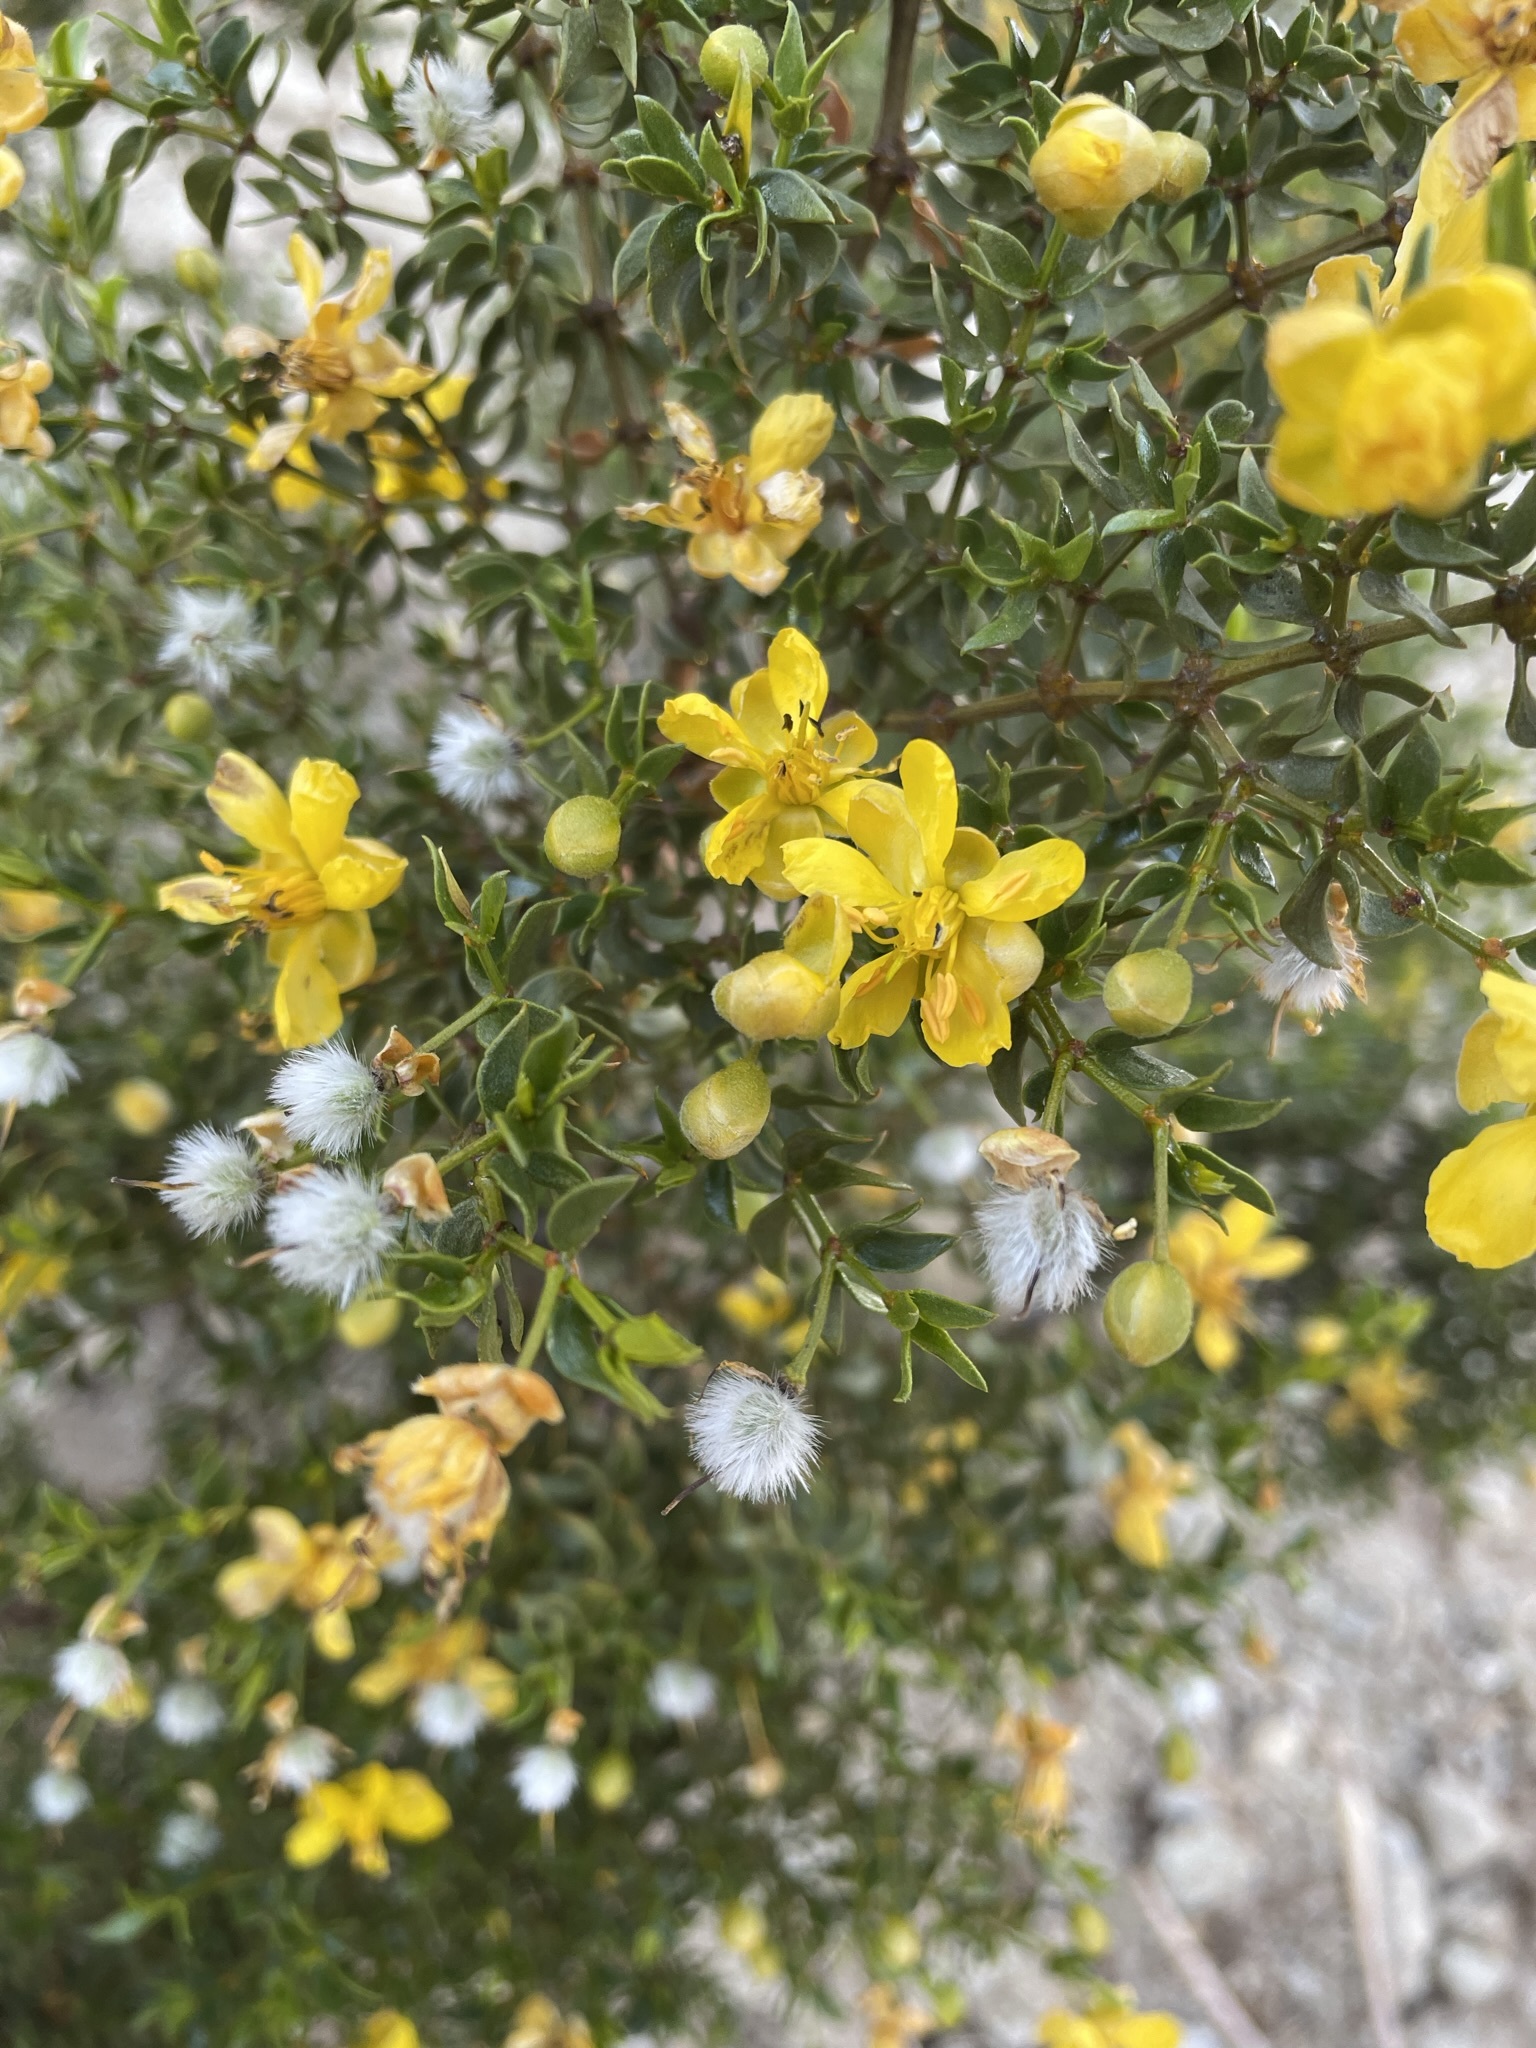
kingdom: Plantae
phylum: Tracheophyta
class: Magnoliopsida
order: Zygophyllales
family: Zygophyllaceae
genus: Larrea
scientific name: Larrea tridentata
